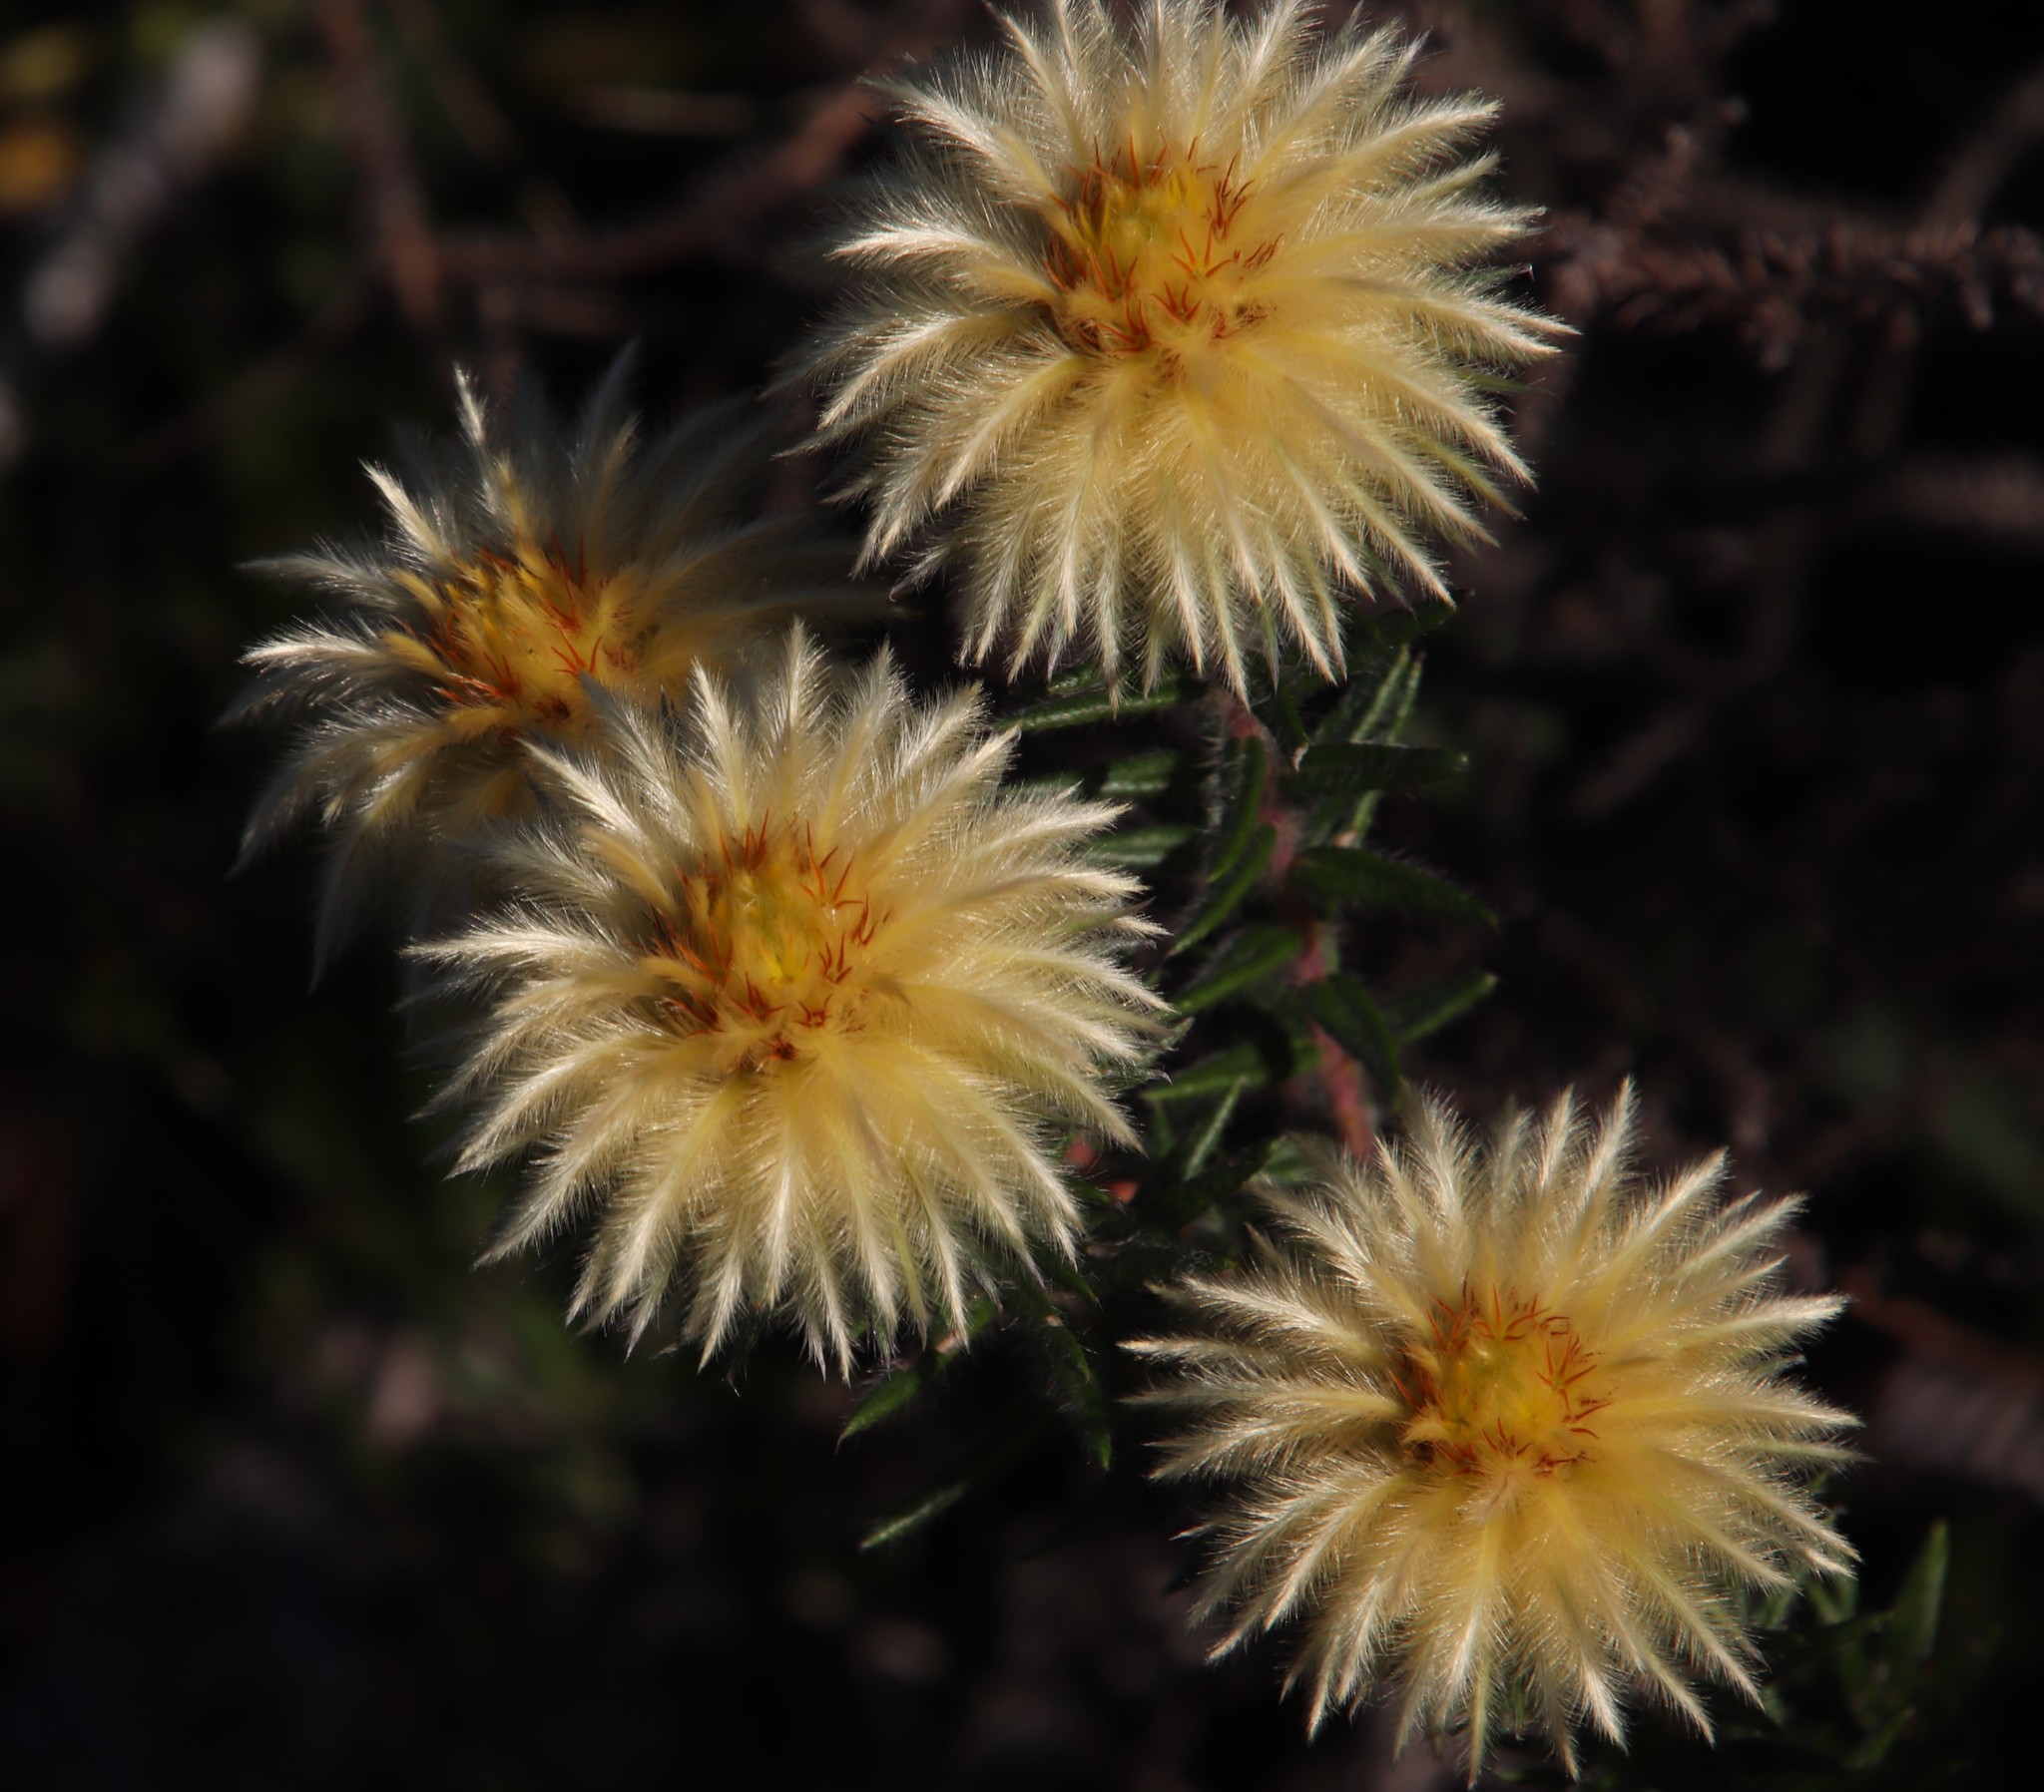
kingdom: Plantae
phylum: Tracheophyta
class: Magnoliopsida
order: Rosales
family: Rhamnaceae
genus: Phylica
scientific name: Phylica pubescens
